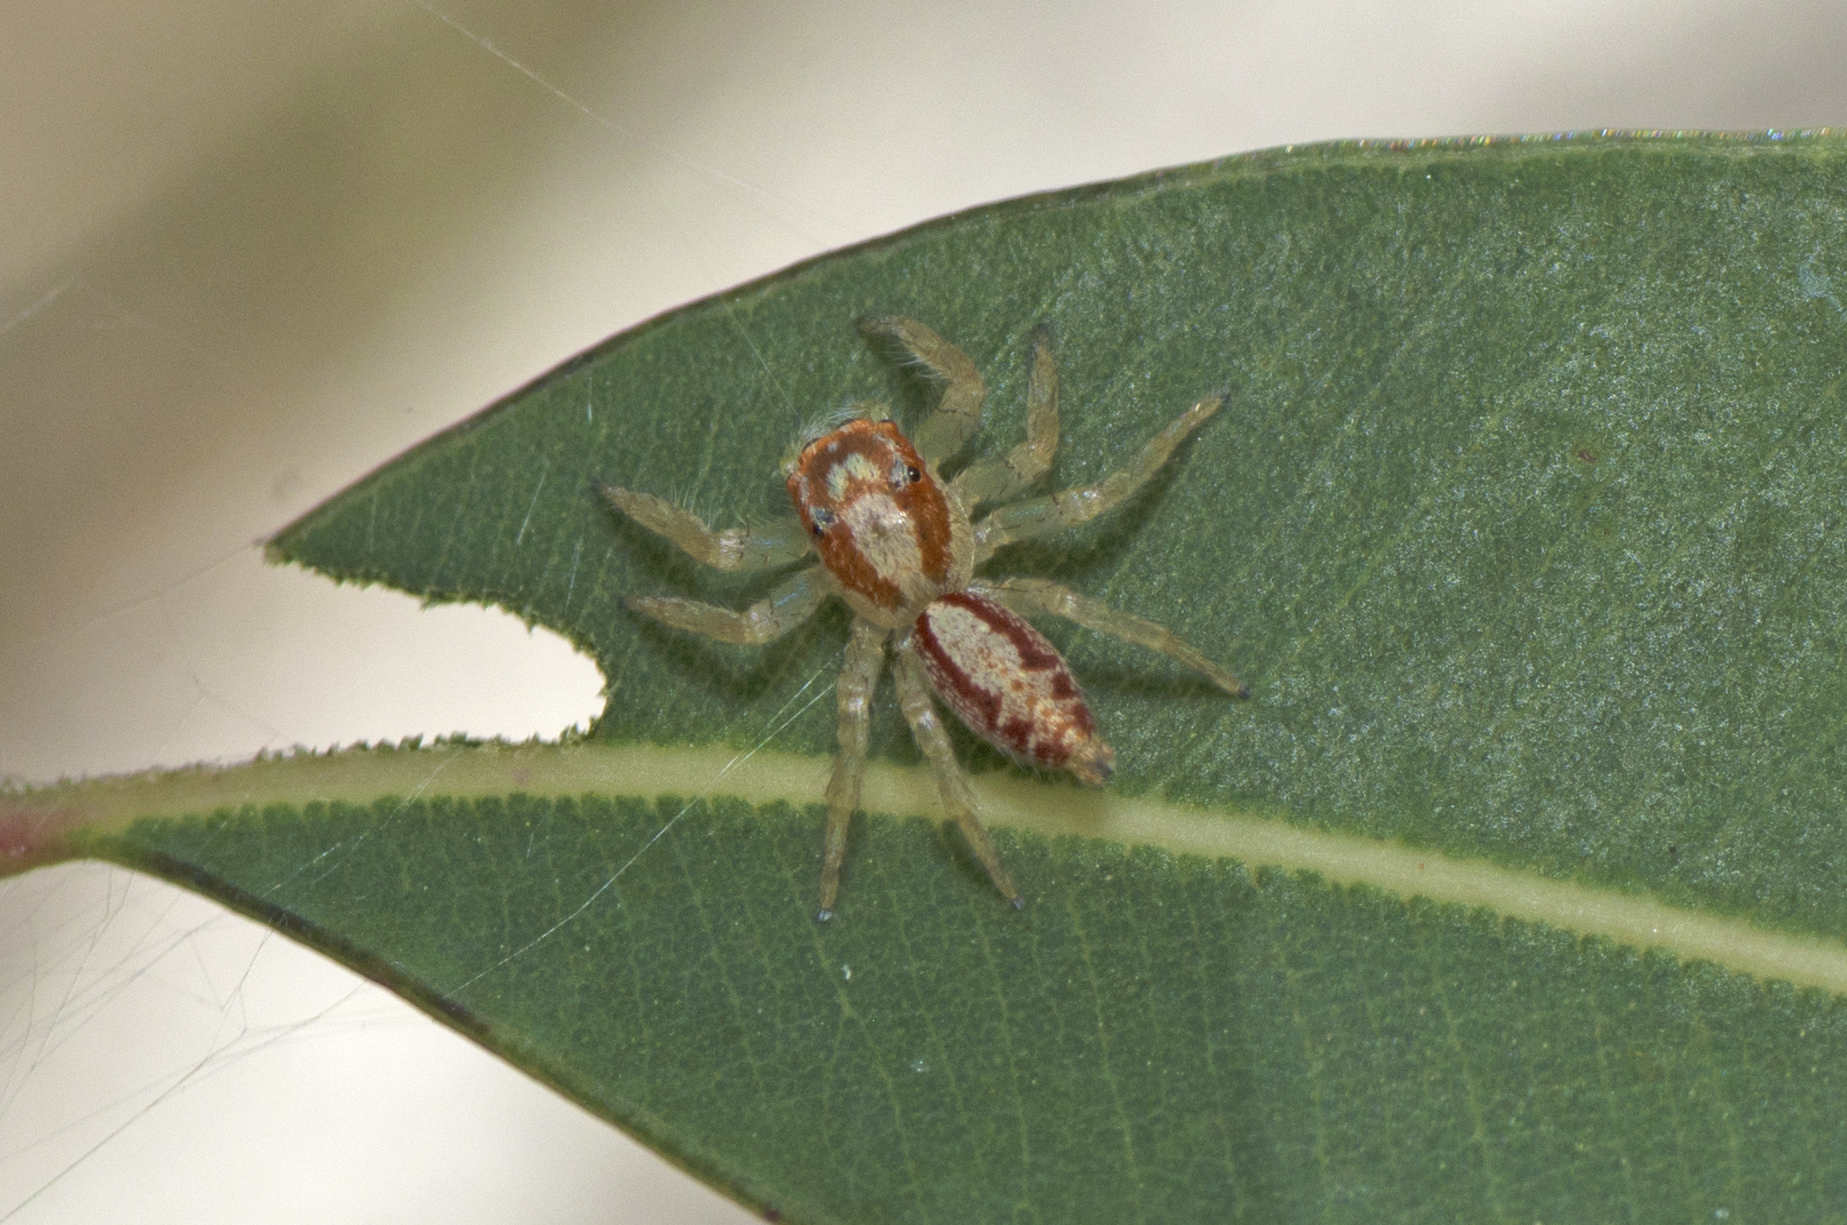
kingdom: Animalia
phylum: Arthropoda
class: Arachnida
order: Araneae
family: Salticidae
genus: Cytaea
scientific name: Cytaea alburna
